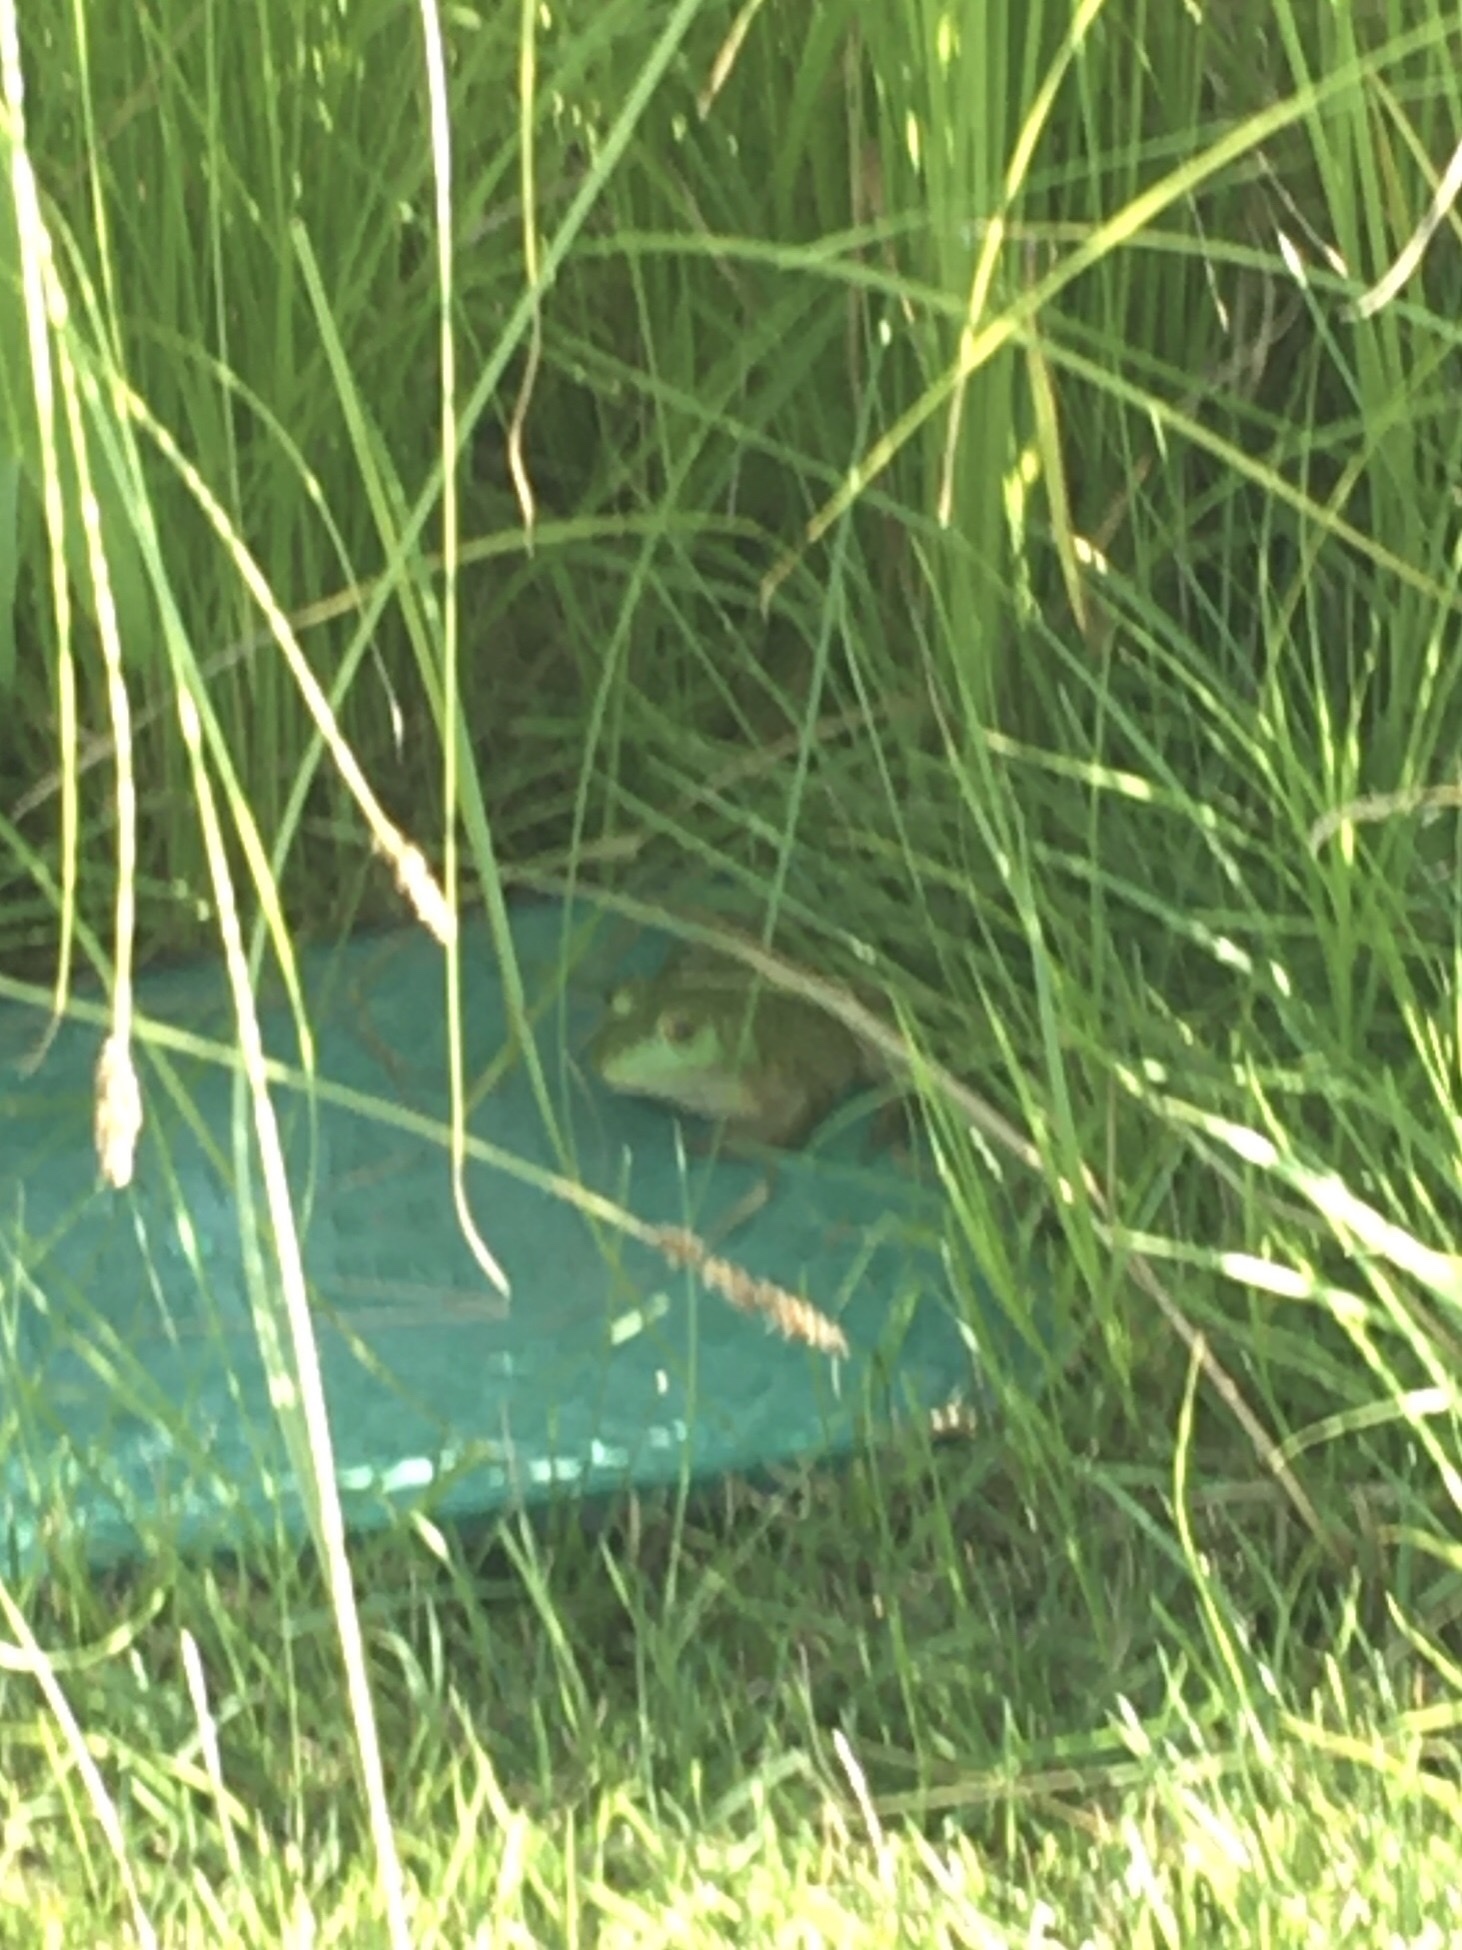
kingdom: Animalia
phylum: Chordata
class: Amphibia
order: Anura
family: Ranidae
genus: Lithobates
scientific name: Lithobates catesbeianus
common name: American bullfrog
